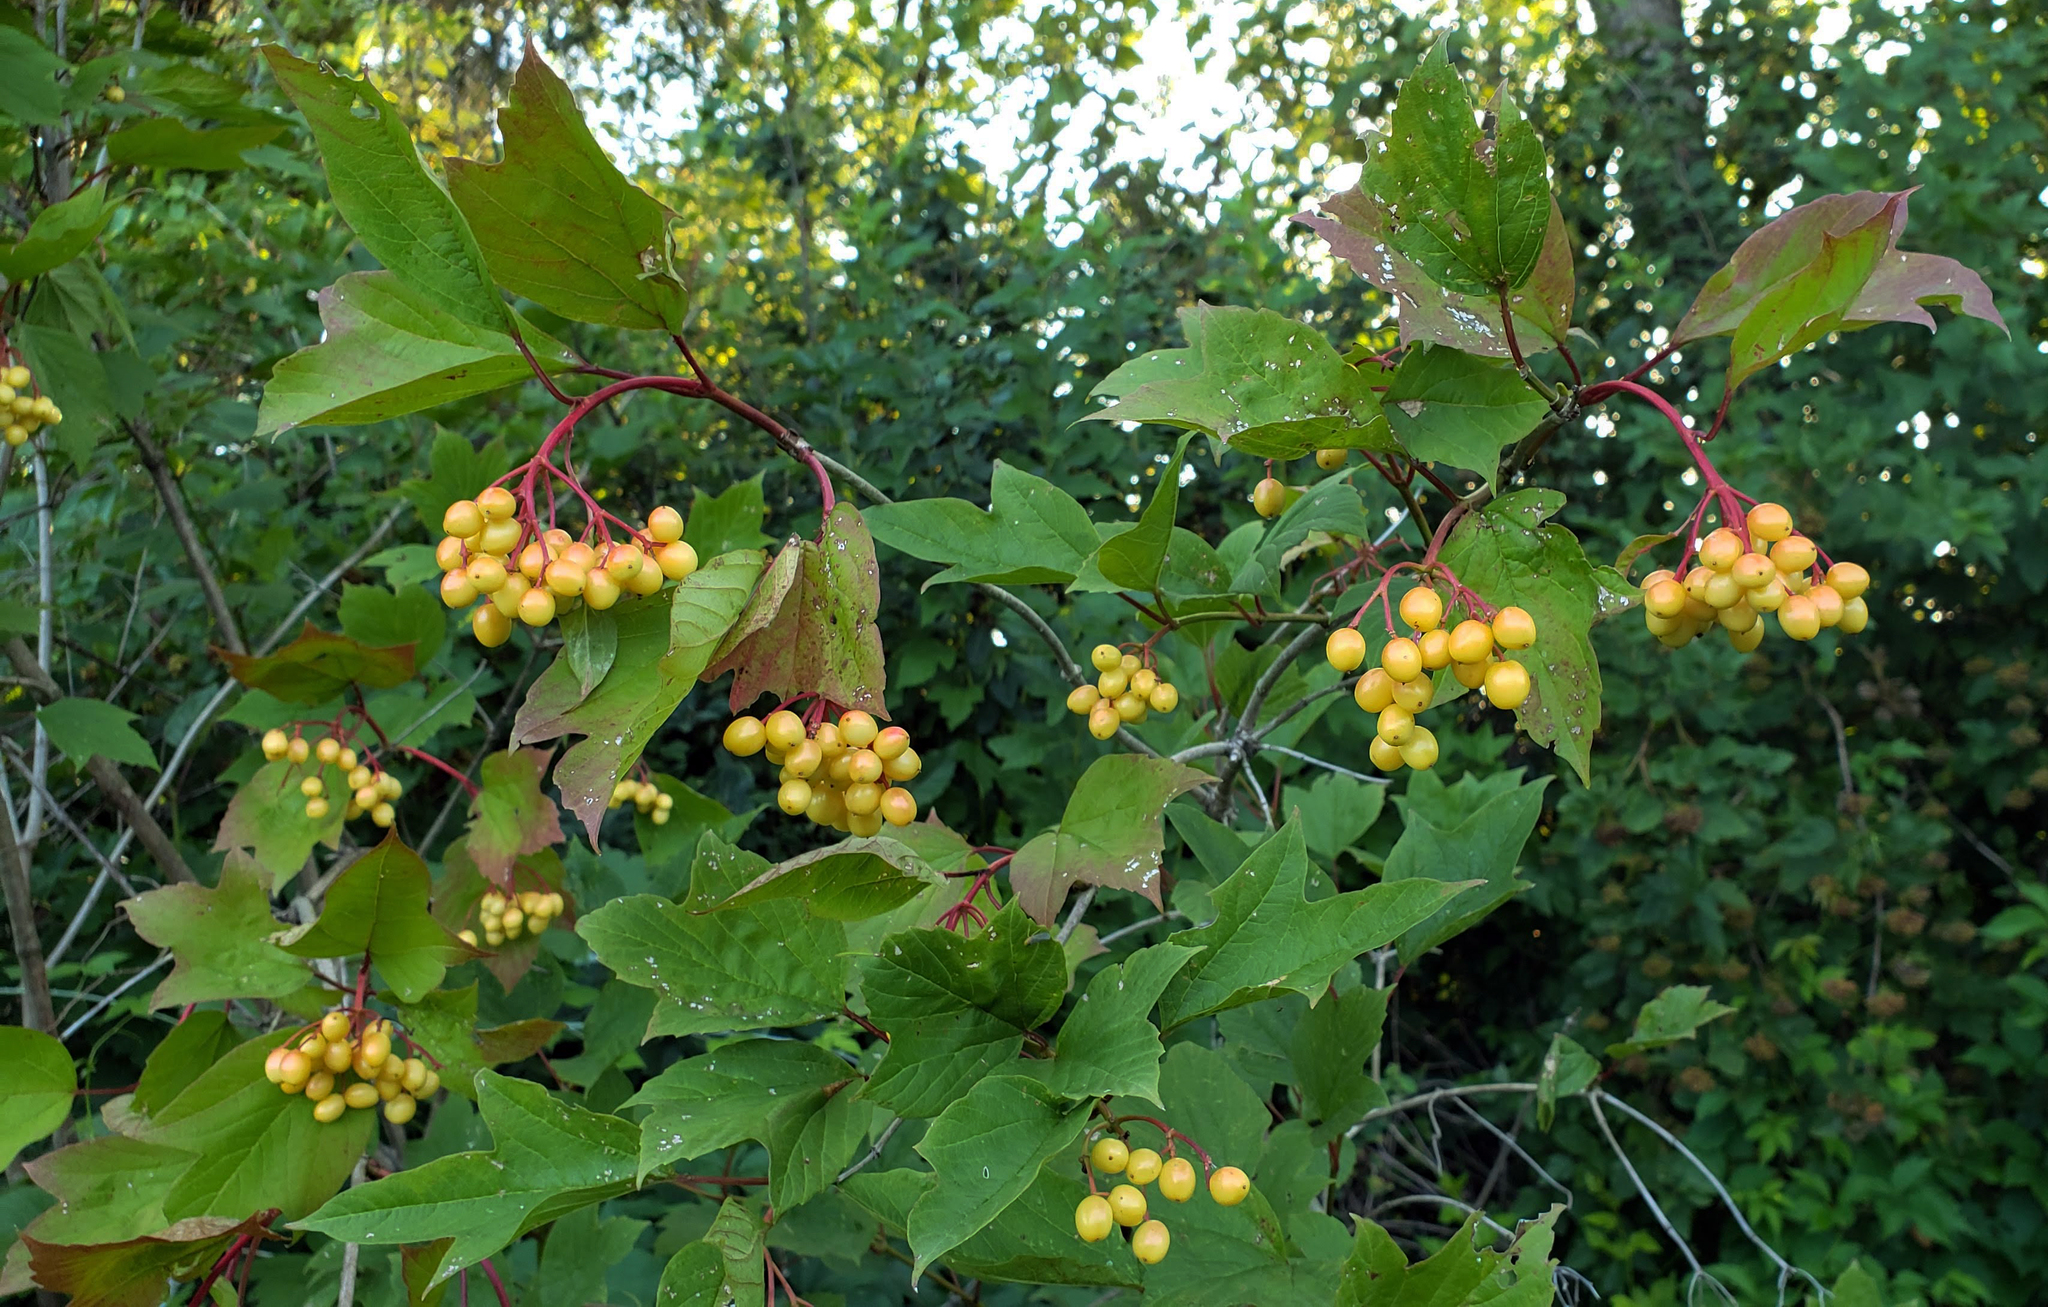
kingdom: Plantae
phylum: Tracheophyta
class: Magnoliopsida
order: Dipsacales
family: Viburnaceae
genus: Viburnum
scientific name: Viburnum opulus
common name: Guelder-rose
